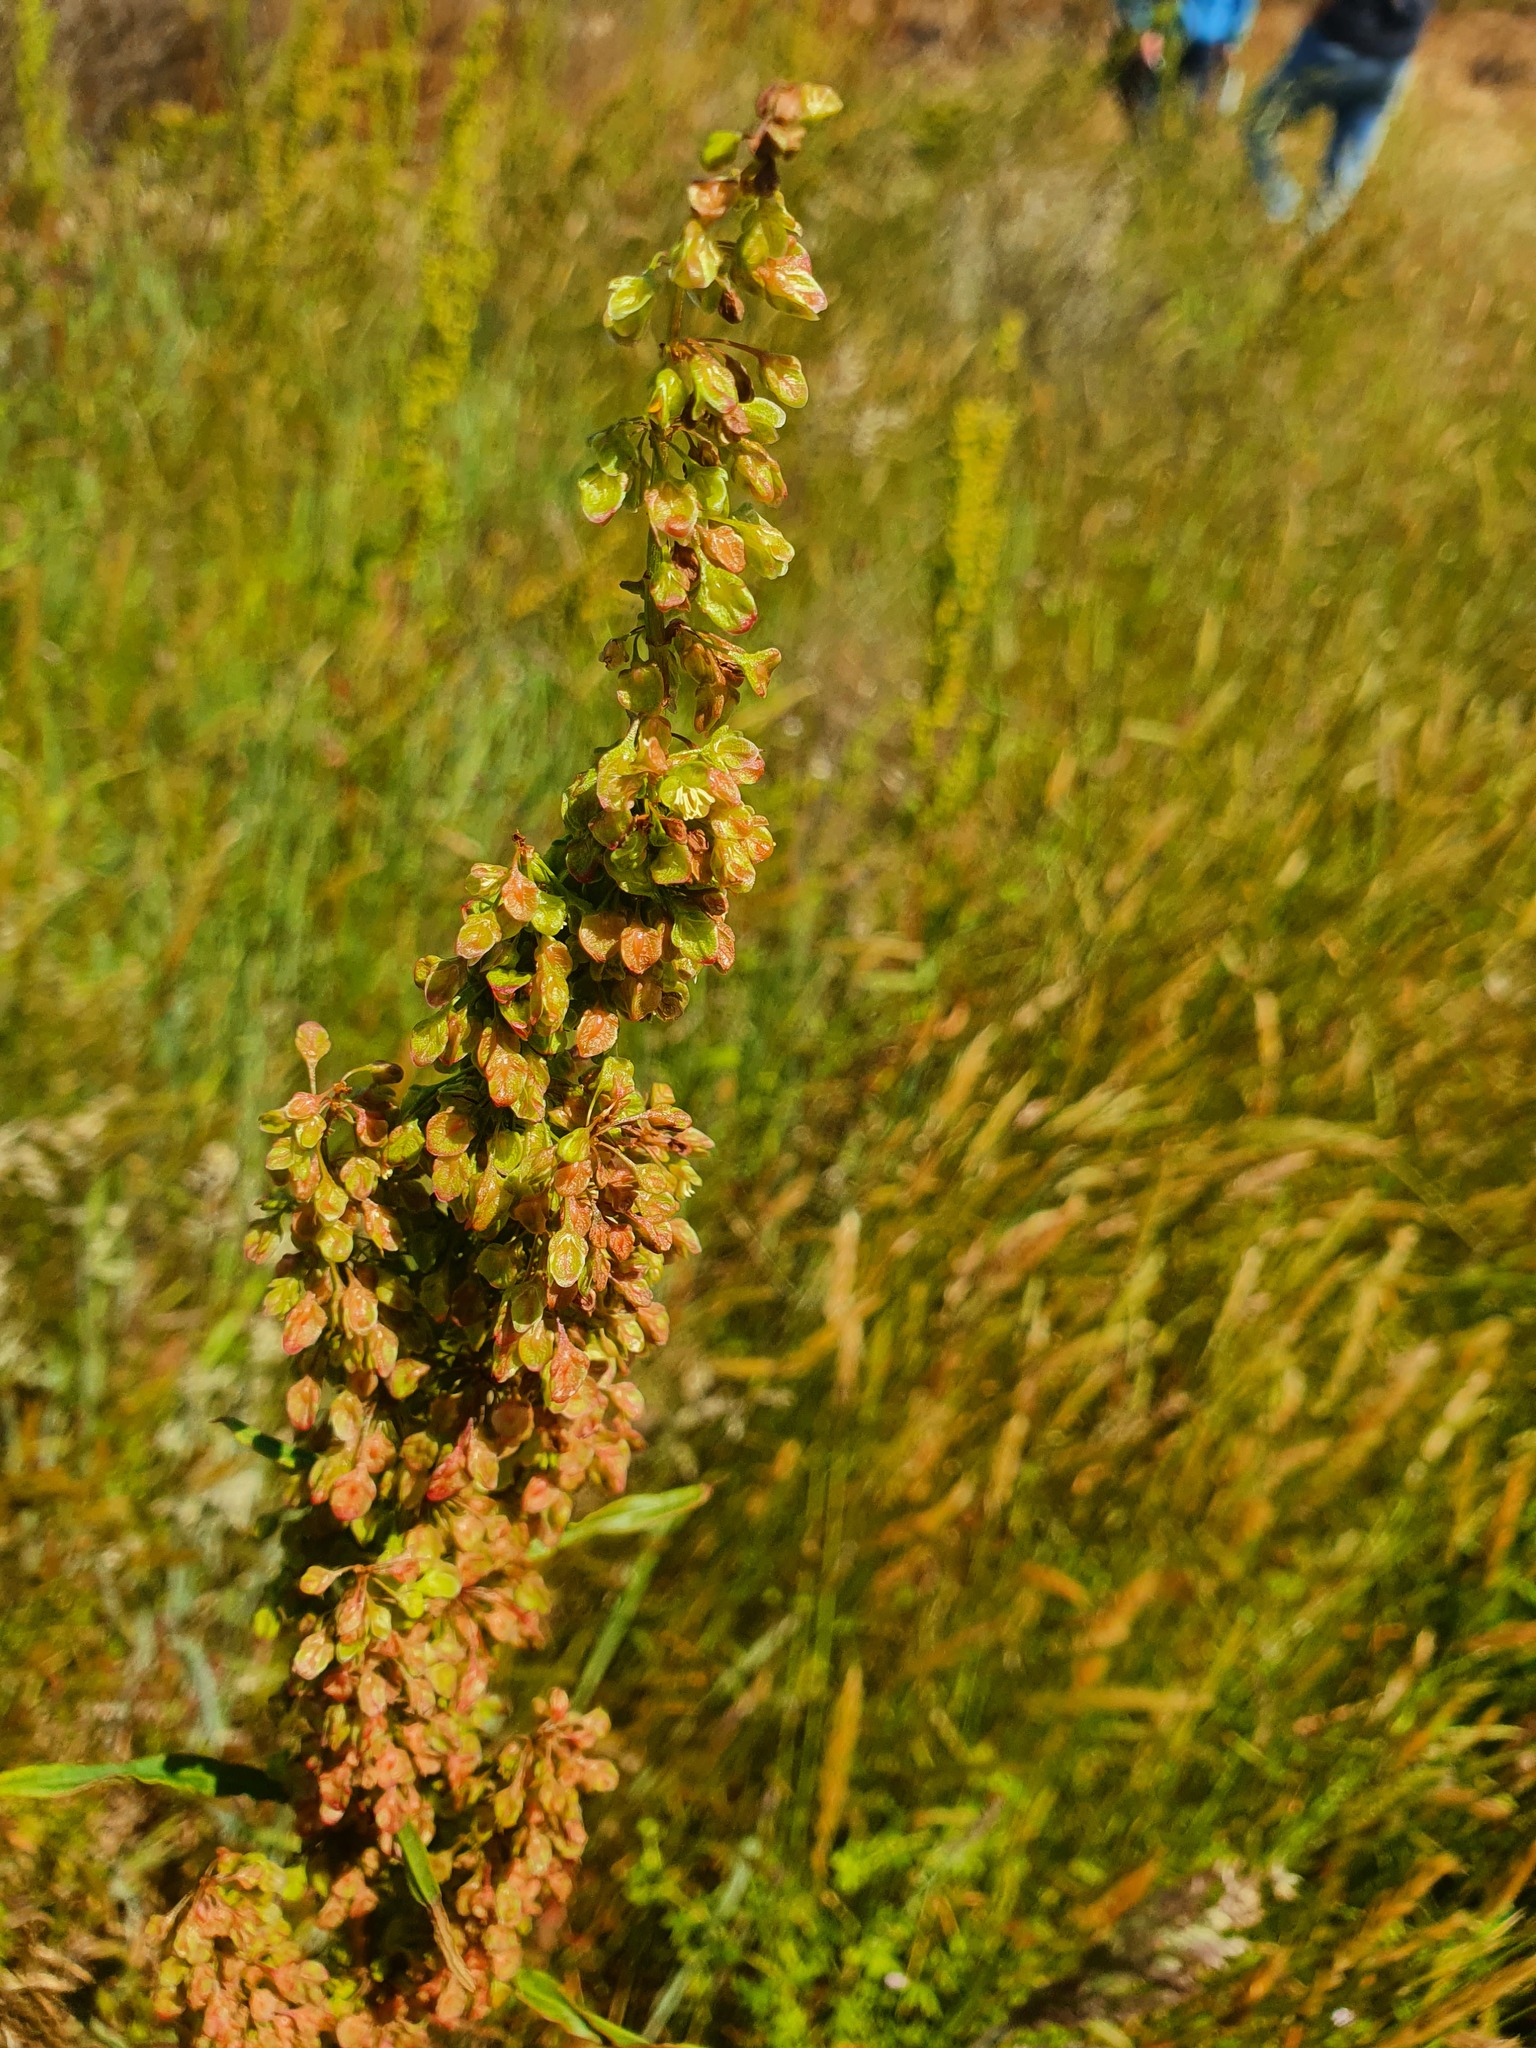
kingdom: Plantae
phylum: Tracheophyta
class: Magnoliopsida
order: Caryophyllales
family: Polygonaceae
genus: Rumex
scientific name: Rumex crispus
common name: Curled dock
